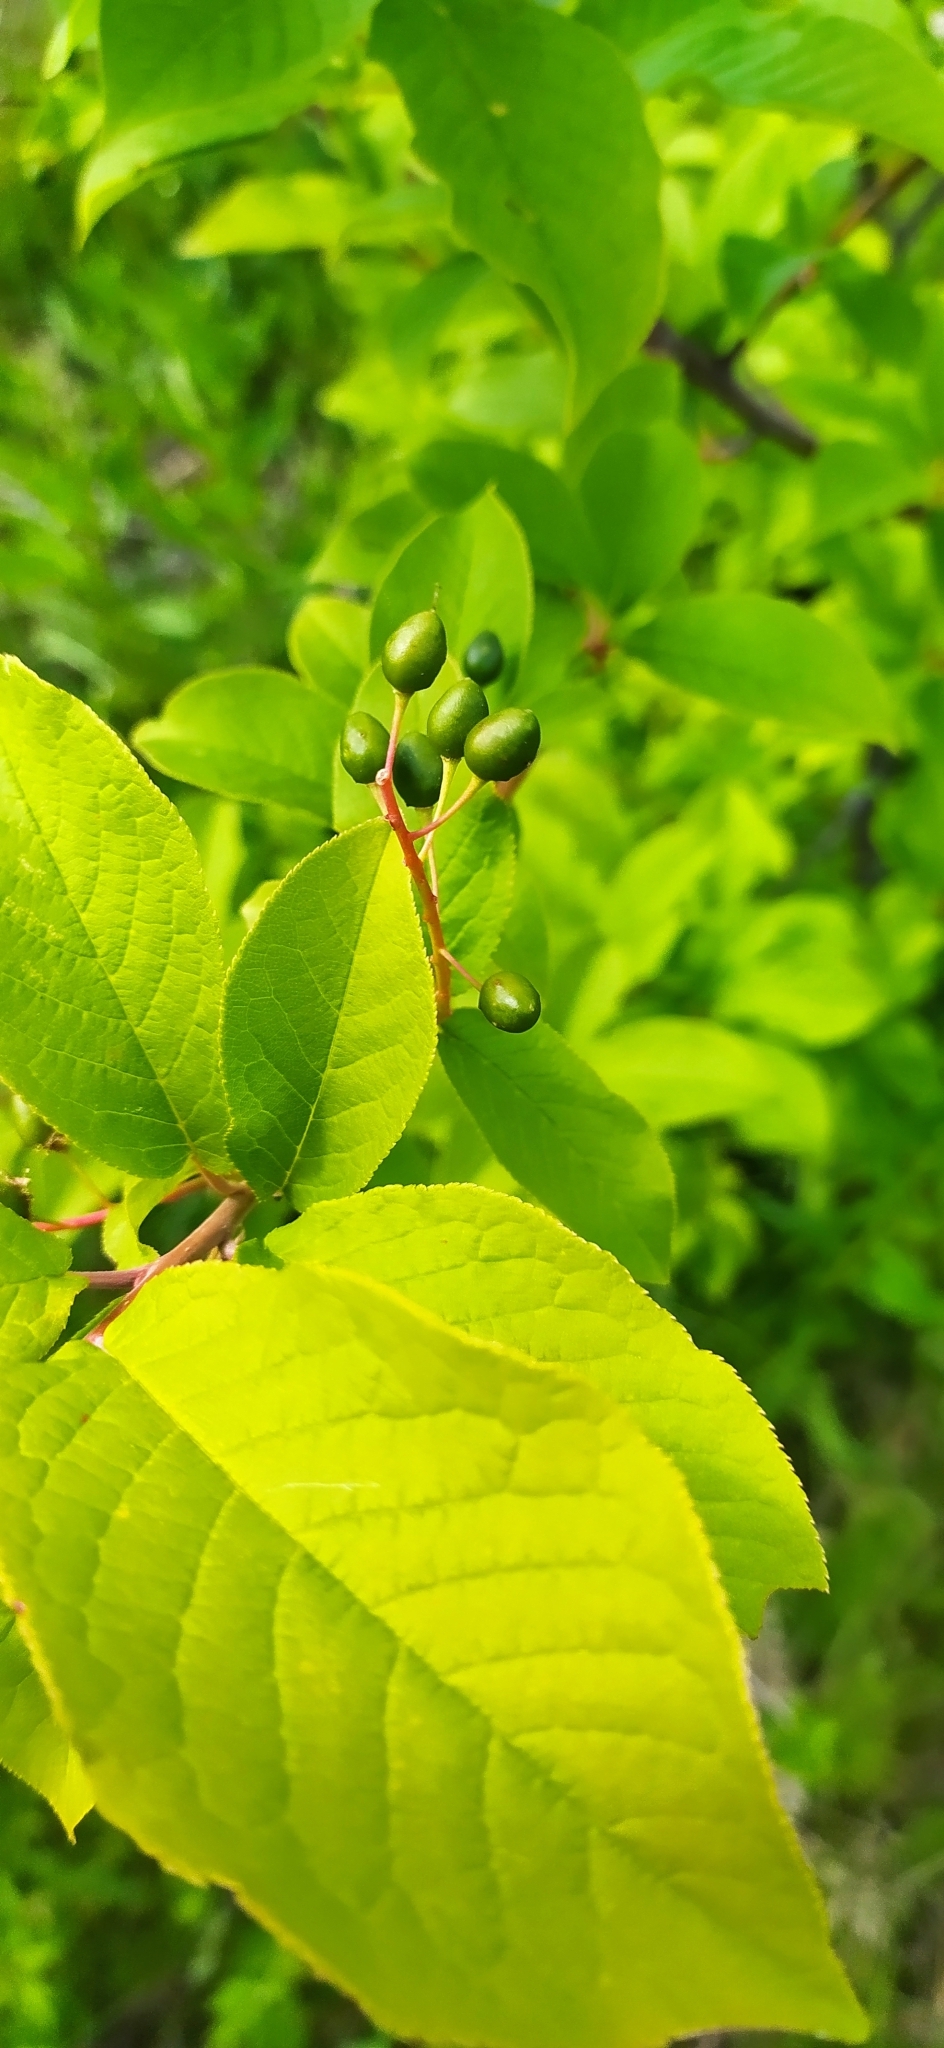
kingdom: Plantae
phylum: Tracheophyta
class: Magnoliopsida
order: Rosales
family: Rosaceae
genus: Prunus
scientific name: Prunus padus
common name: Bird cherry
